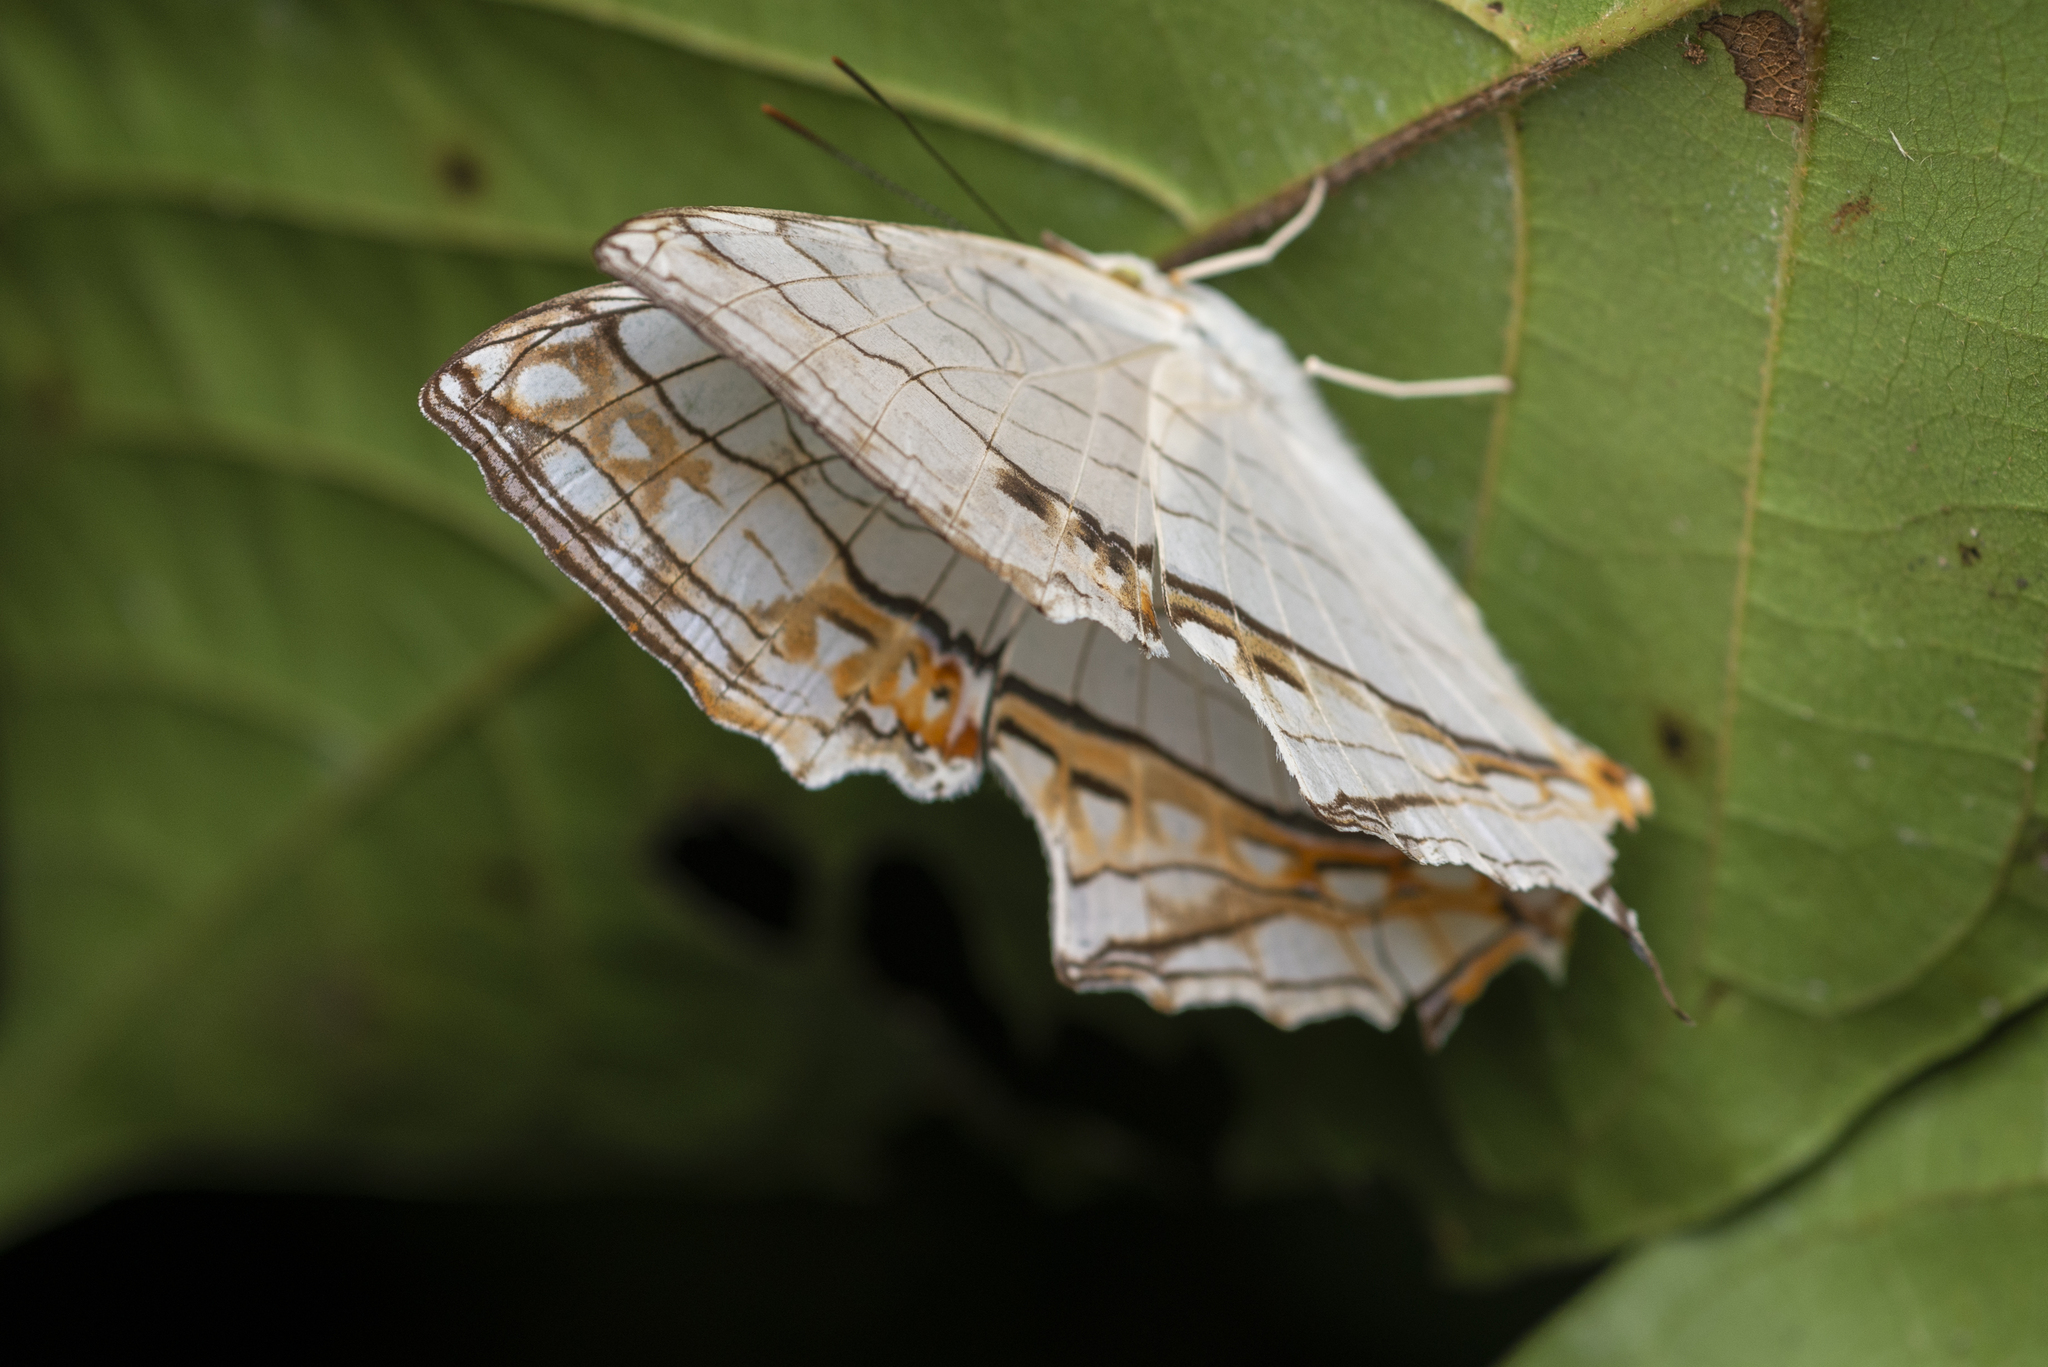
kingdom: Animalia
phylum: Arthropoda
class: Insecta
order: Lepidoptera
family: Nymphalidae
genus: Cyrestis
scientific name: Cyrestis thyodamas
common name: Common mapwing
